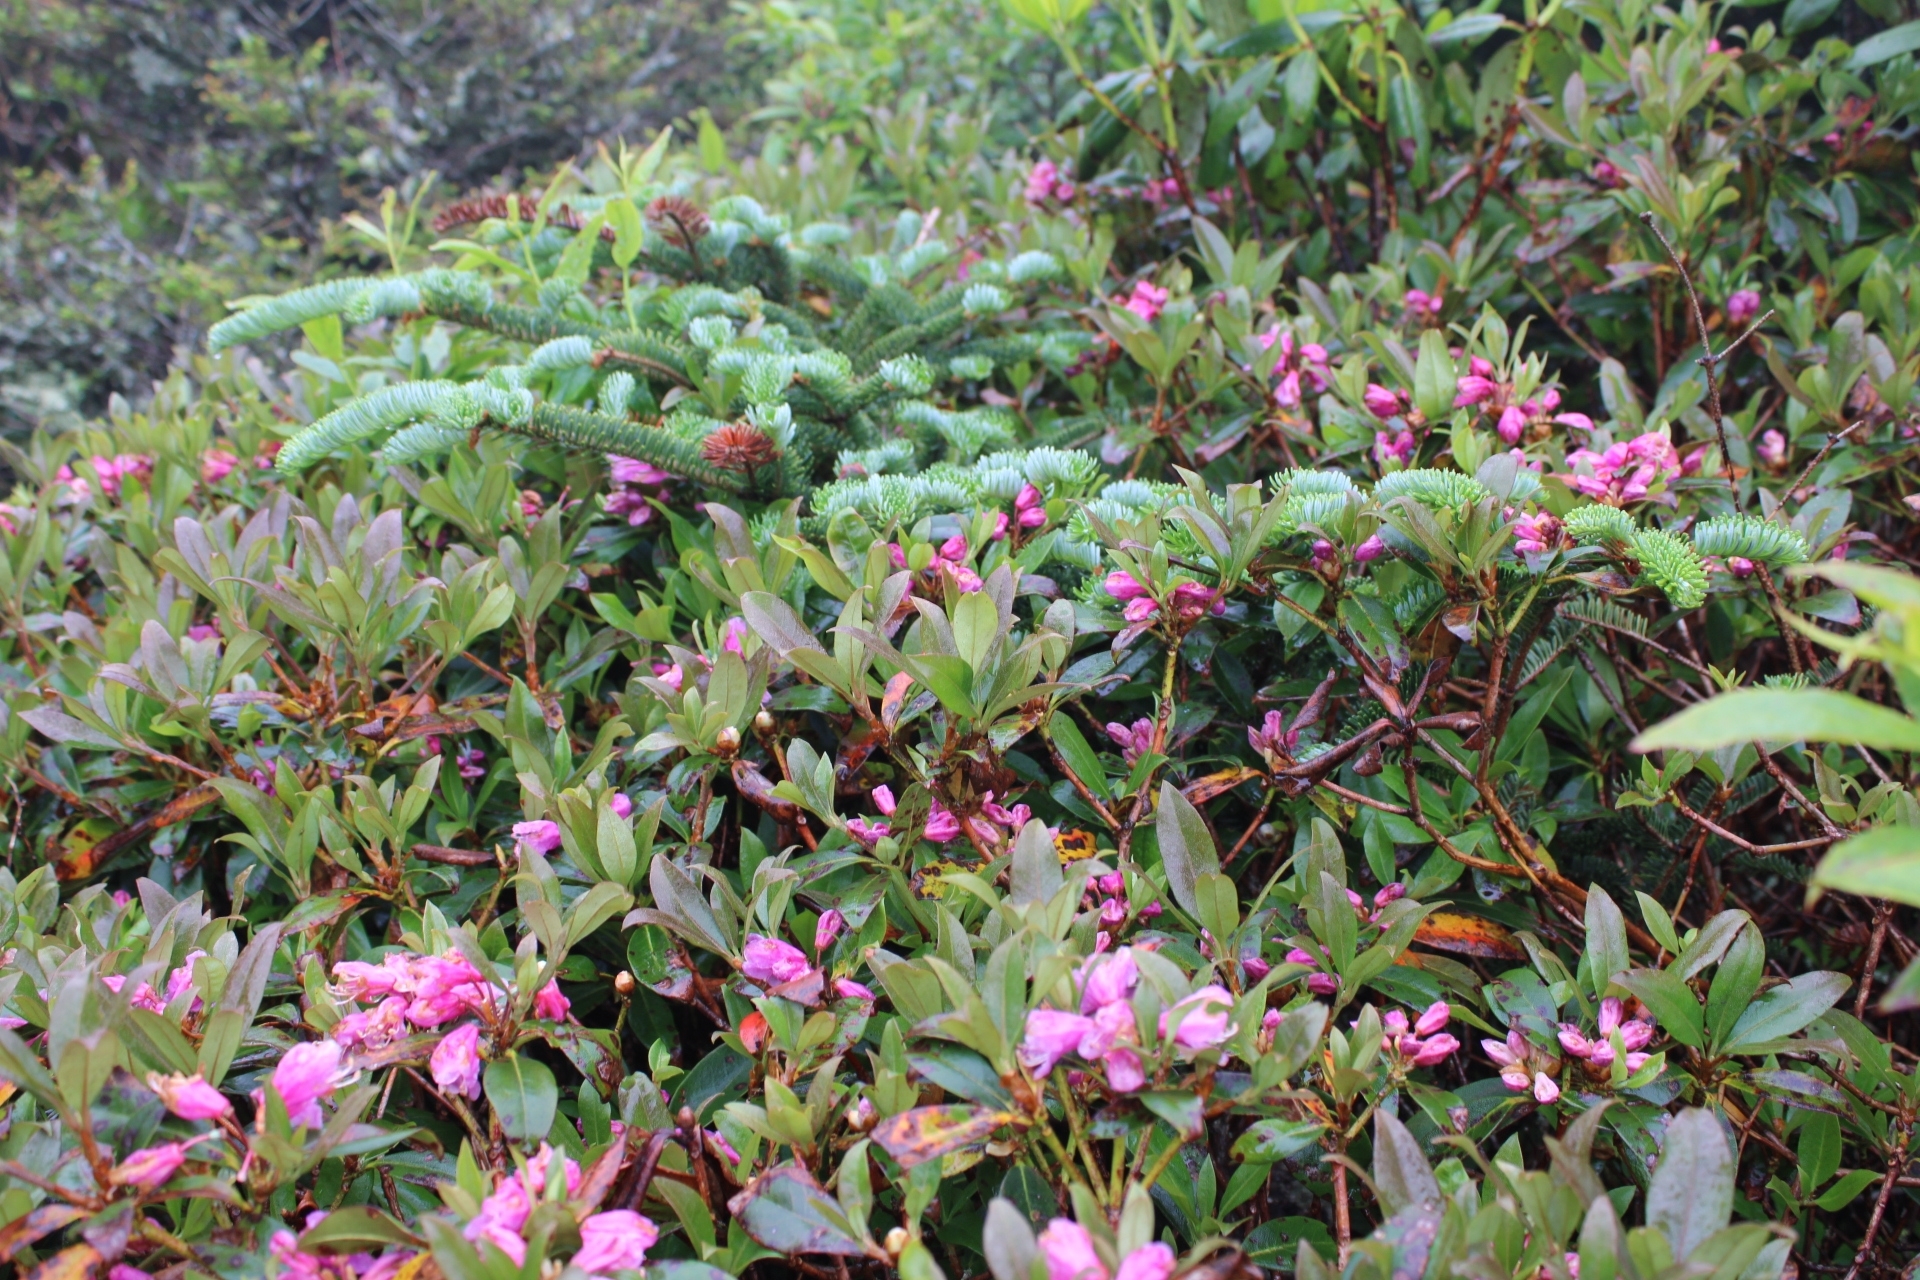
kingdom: Plantae
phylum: Tracheophyta
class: Magnoliopsida
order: Ericales
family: Ericaceae
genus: Rhododendron
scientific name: Rhododendron smokianum
